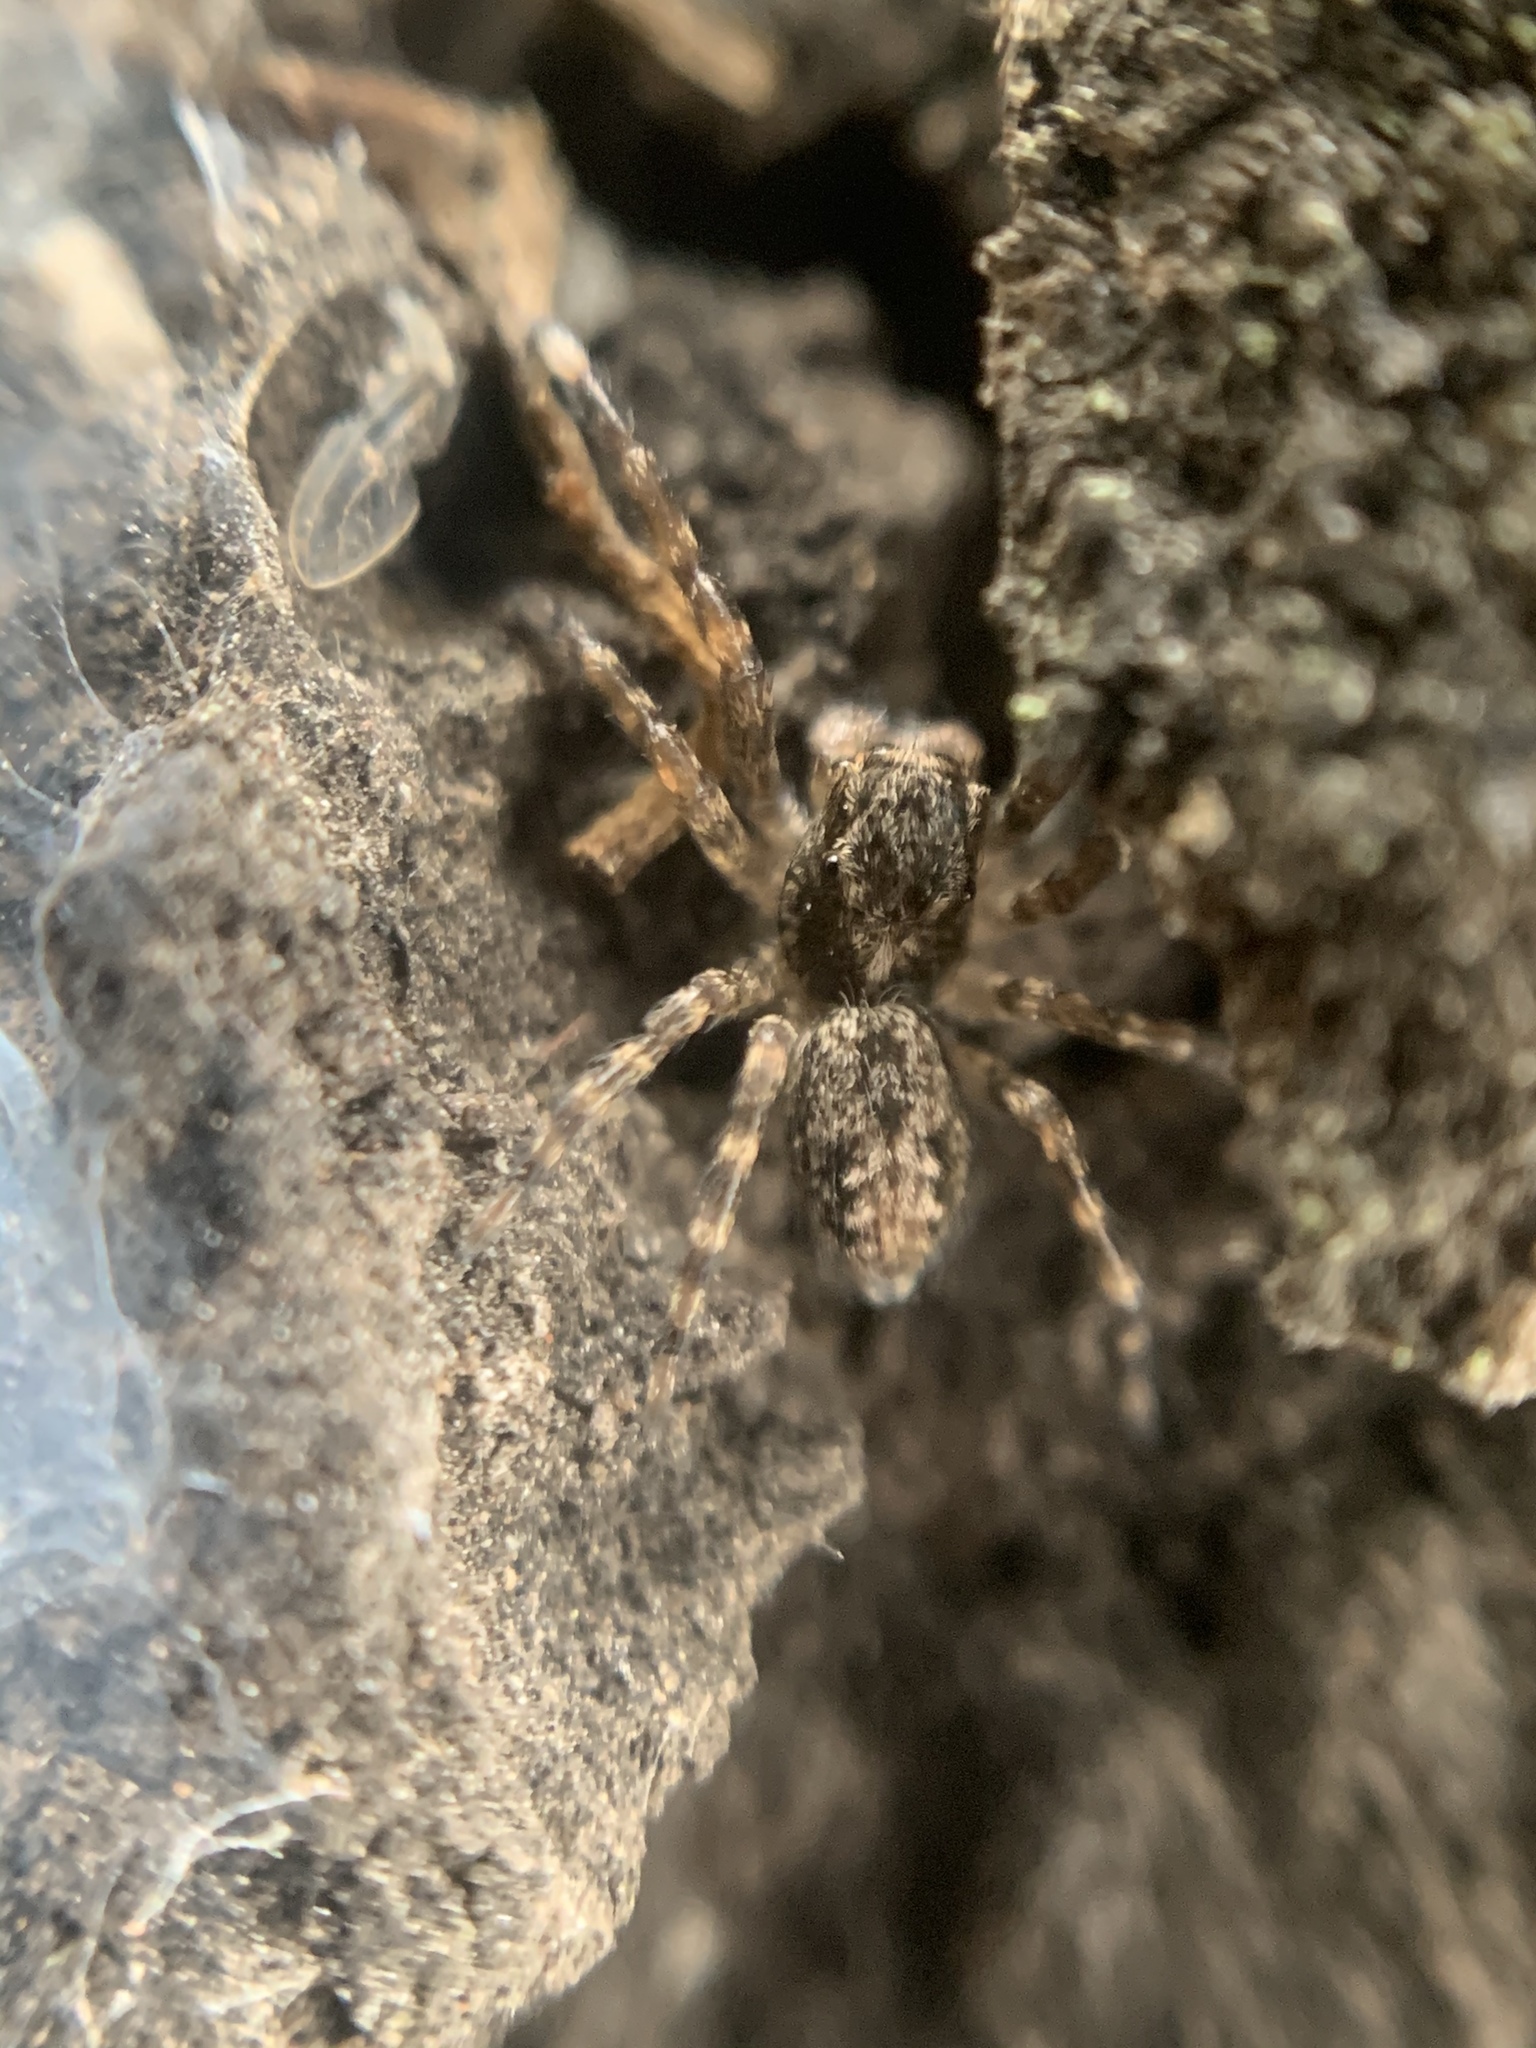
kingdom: Animalia
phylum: Arthropoda
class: Arachnida
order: Araneae
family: Salticidae
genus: Titanattus
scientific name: Titanattus andinus
